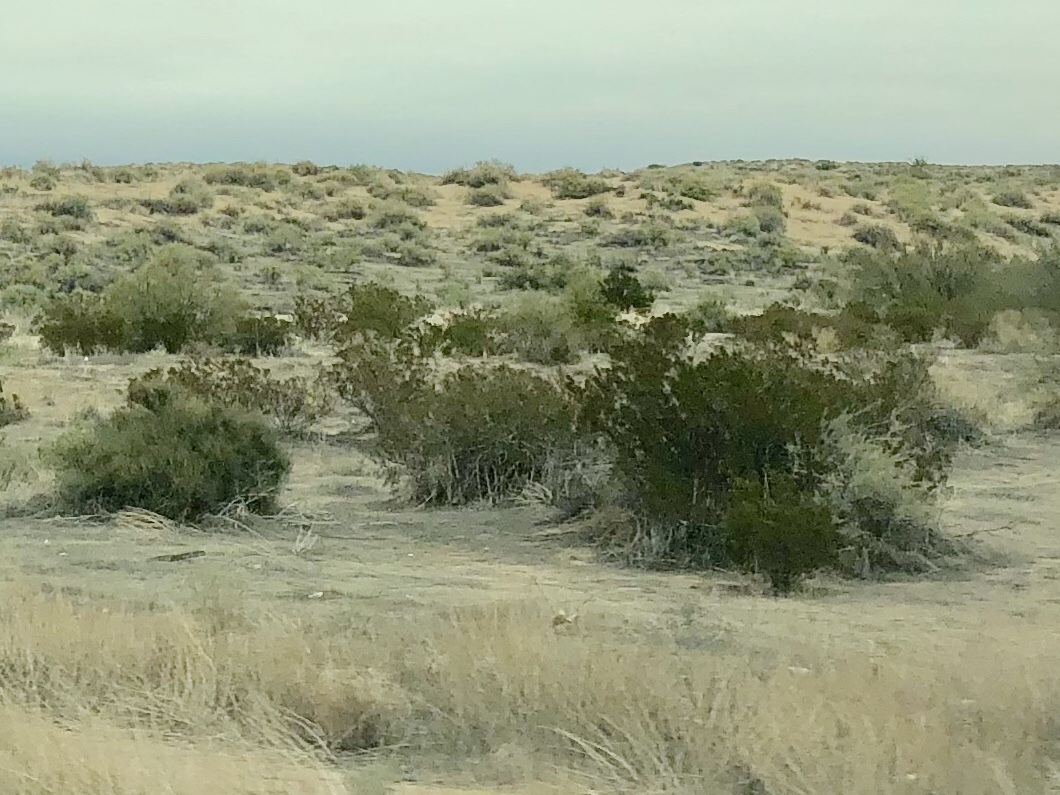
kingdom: Plantae
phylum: Tracheophyta
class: Magnoliopsida
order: Zygophyllales
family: Zygophyllaceae
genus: Larrea
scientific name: Larrea tridentata
